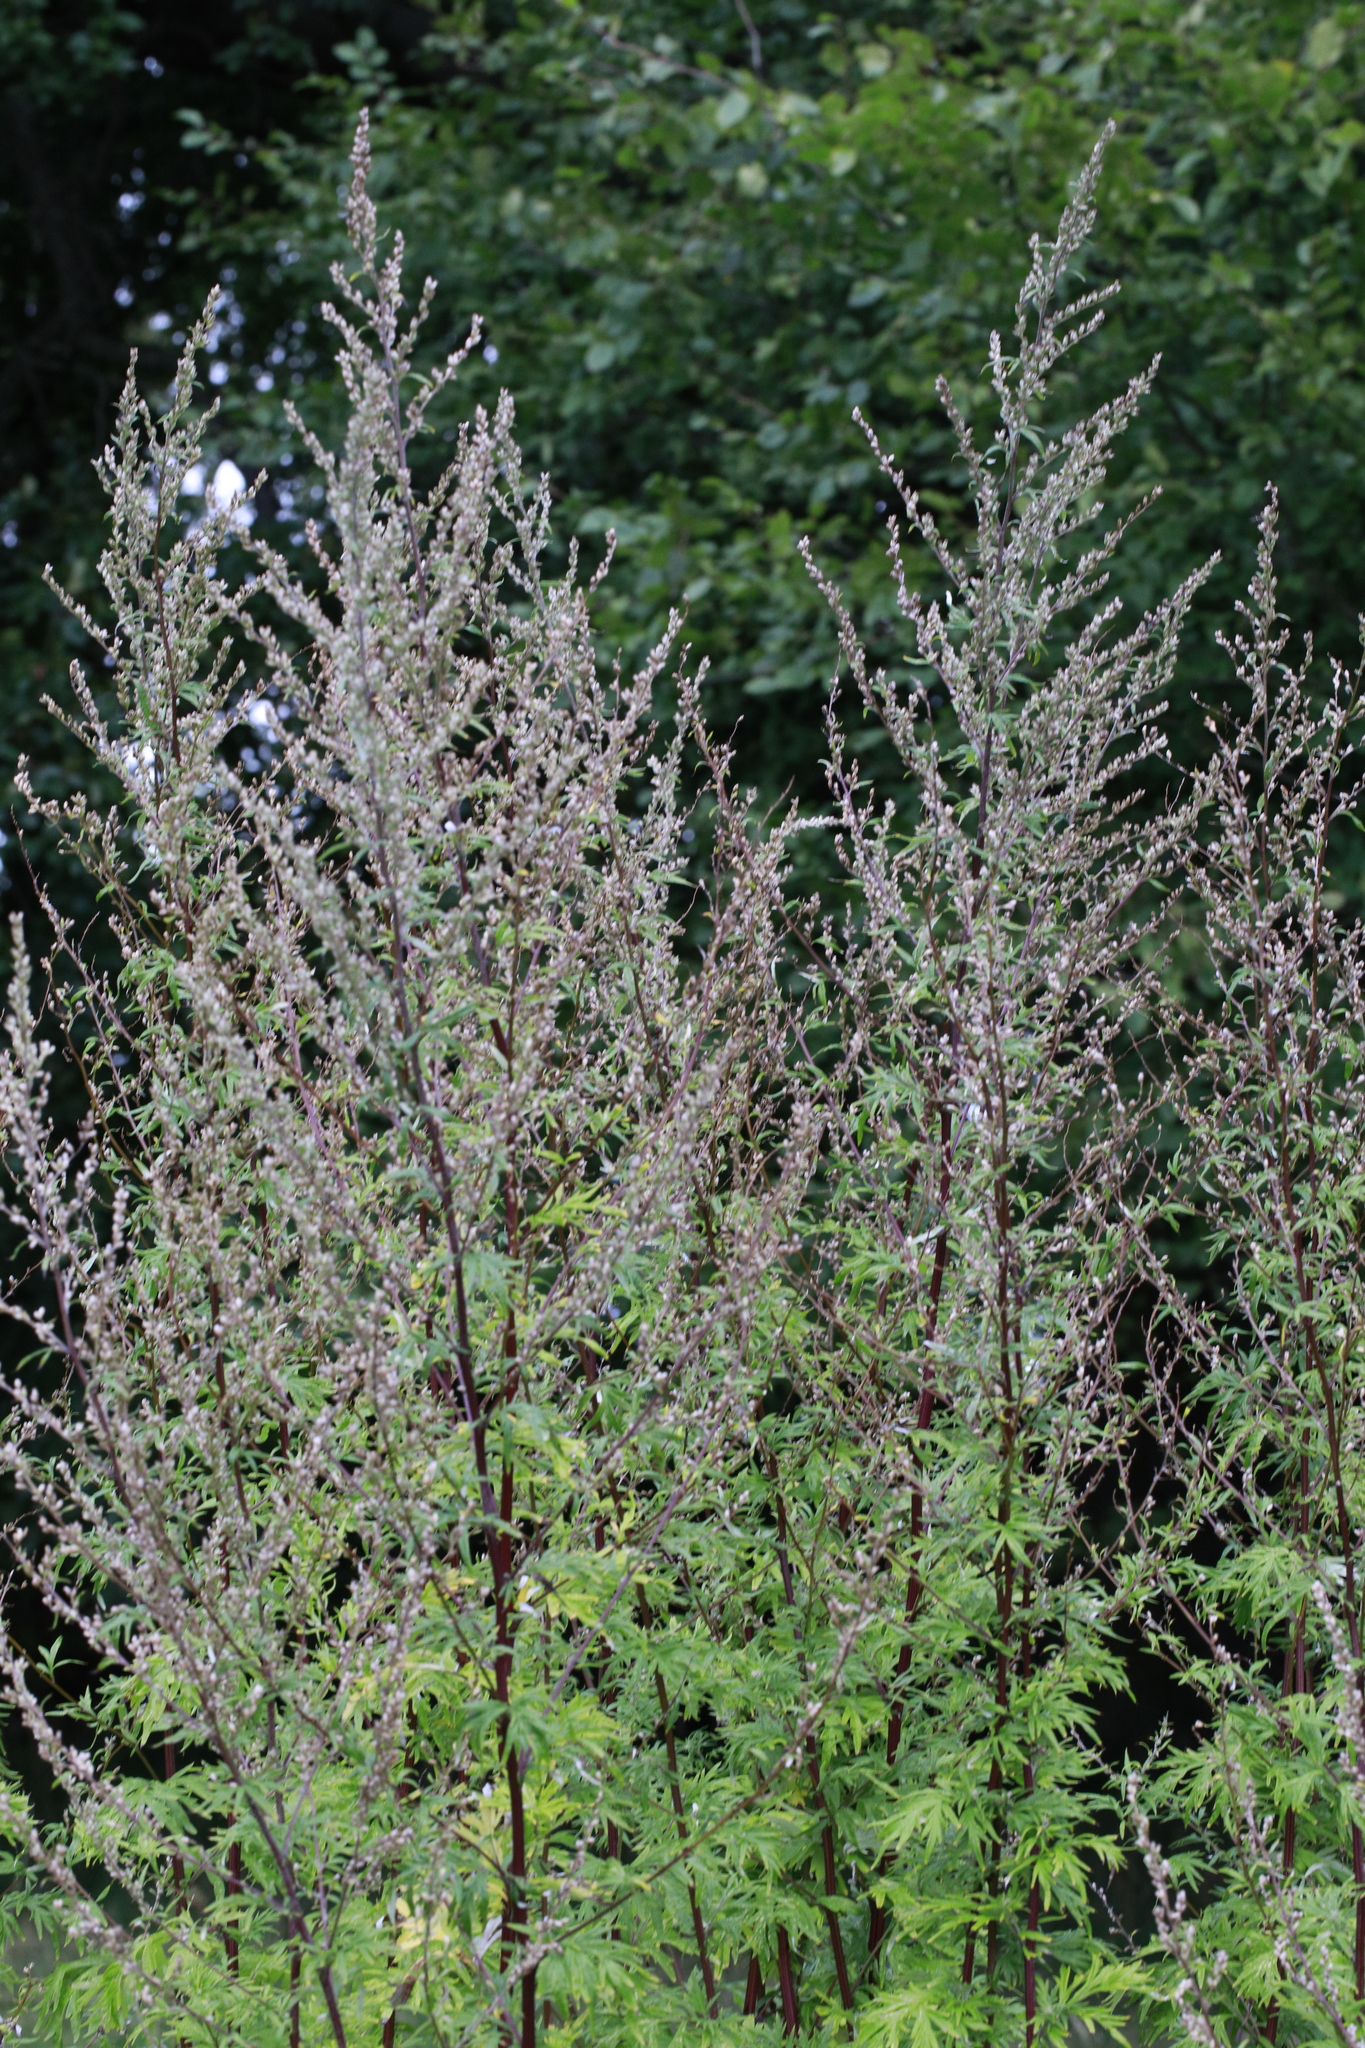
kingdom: Plantae
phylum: Tracheophyta
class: Magnoliopsida
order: Asterales
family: Asteraceae
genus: Artemisia
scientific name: Artemisia vulgaris
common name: Mugwort
